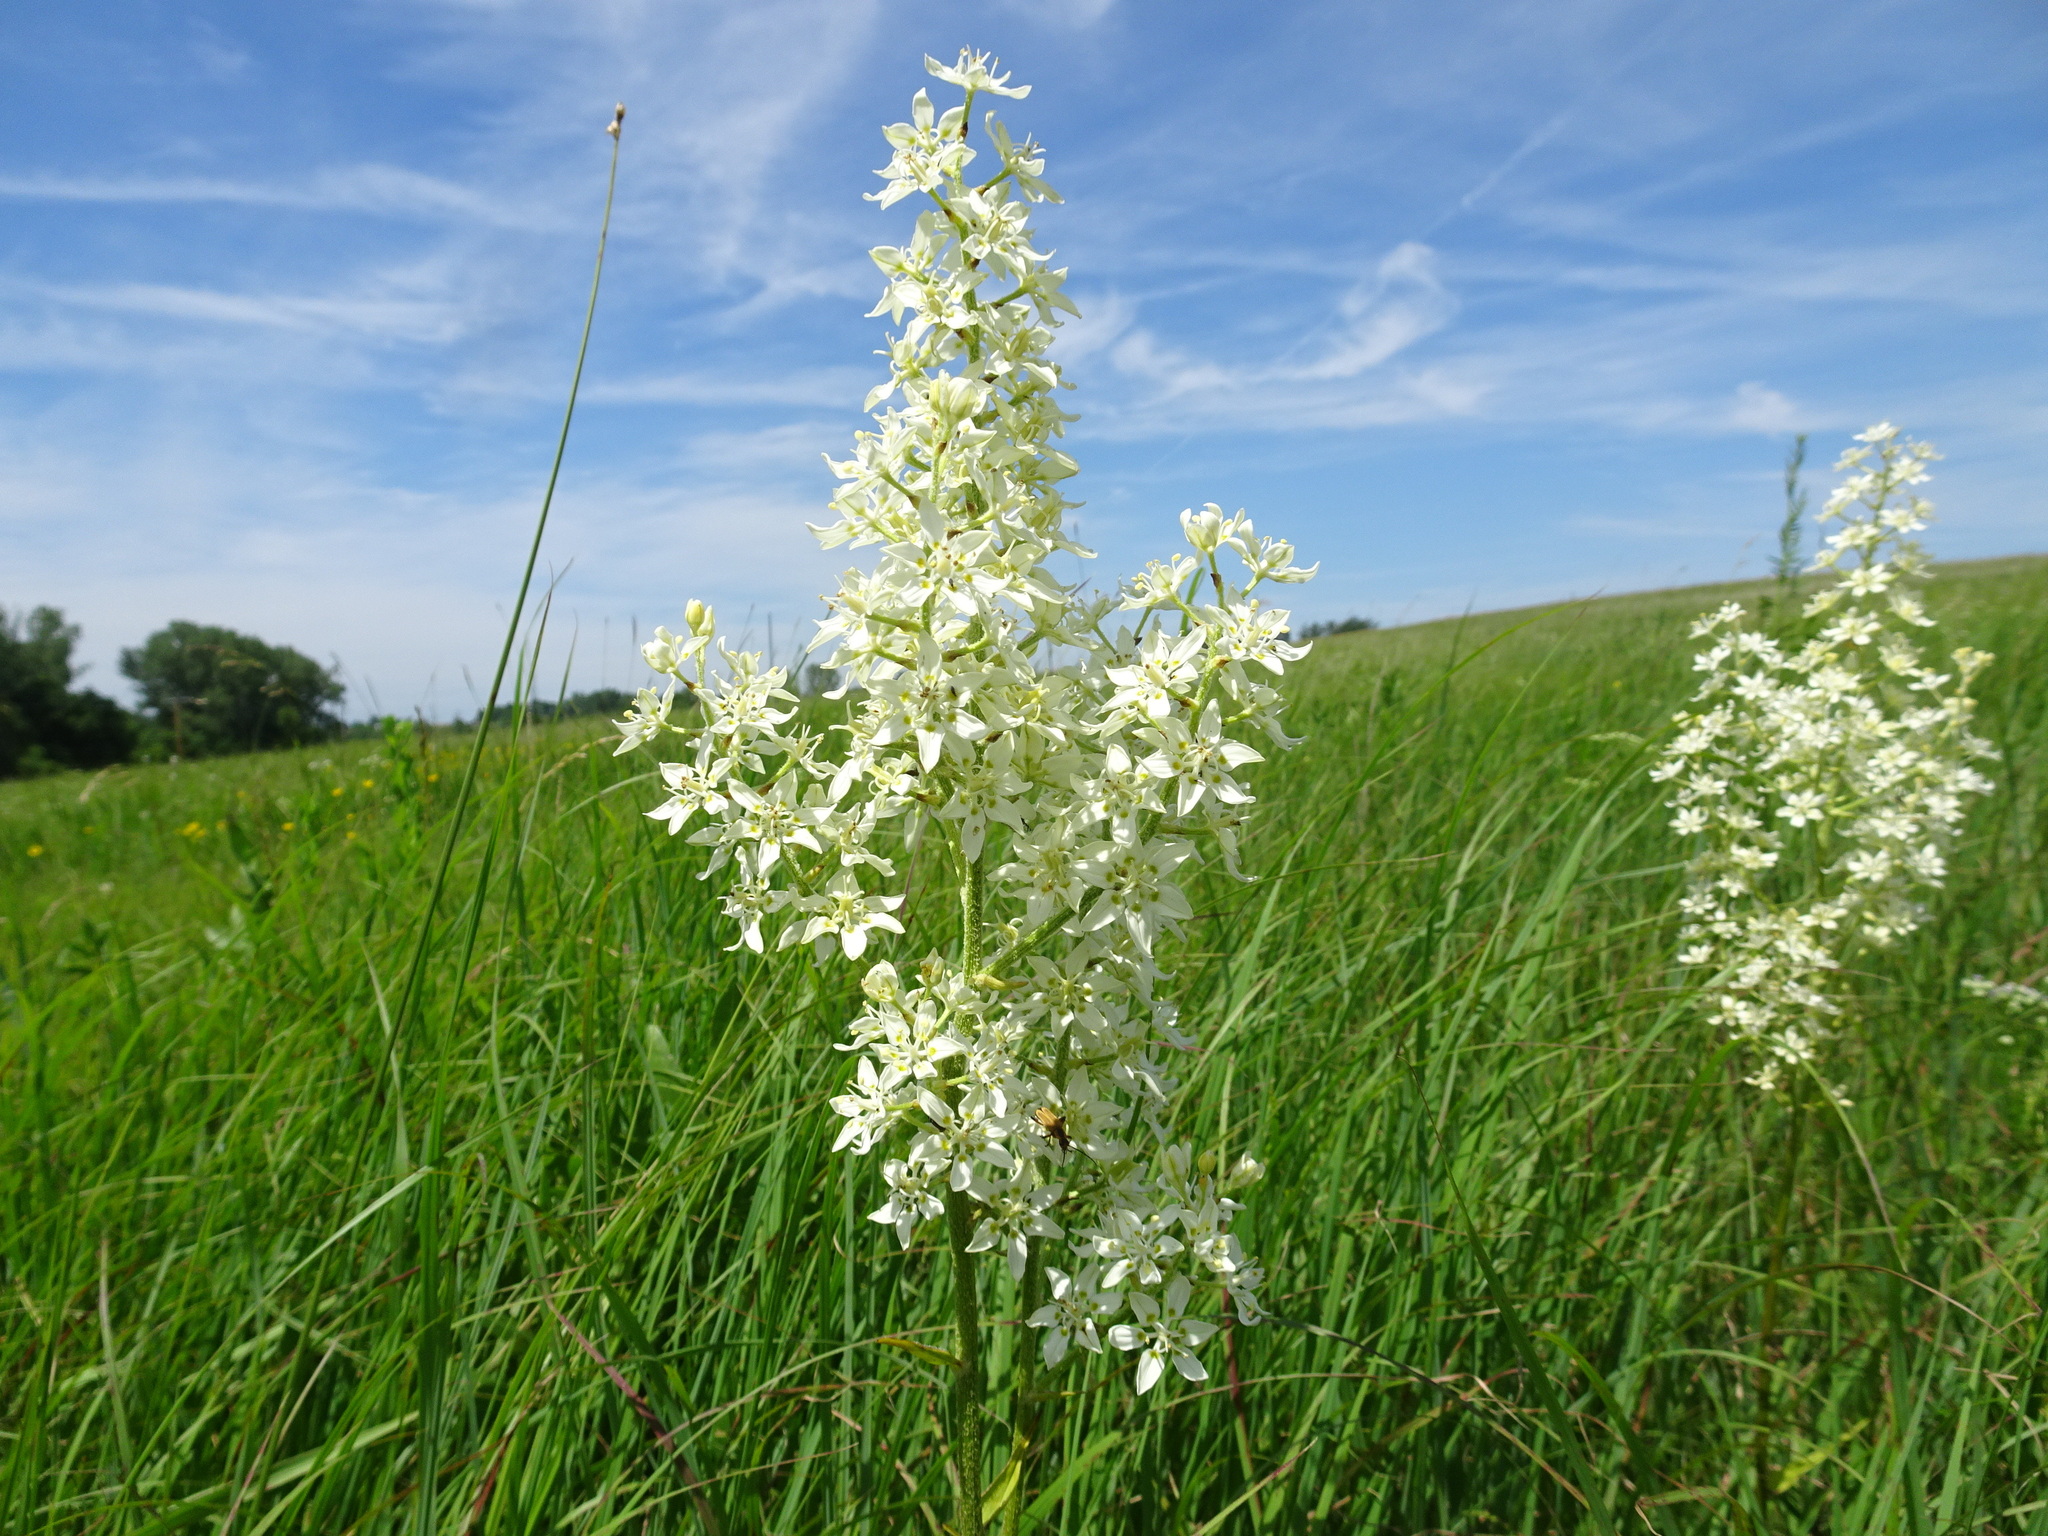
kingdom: Plantae
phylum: Tracheophyta
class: Liliopsida
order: Liliales
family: Melanthiaceae
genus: Melanthium
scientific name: Melanthium virginicum
